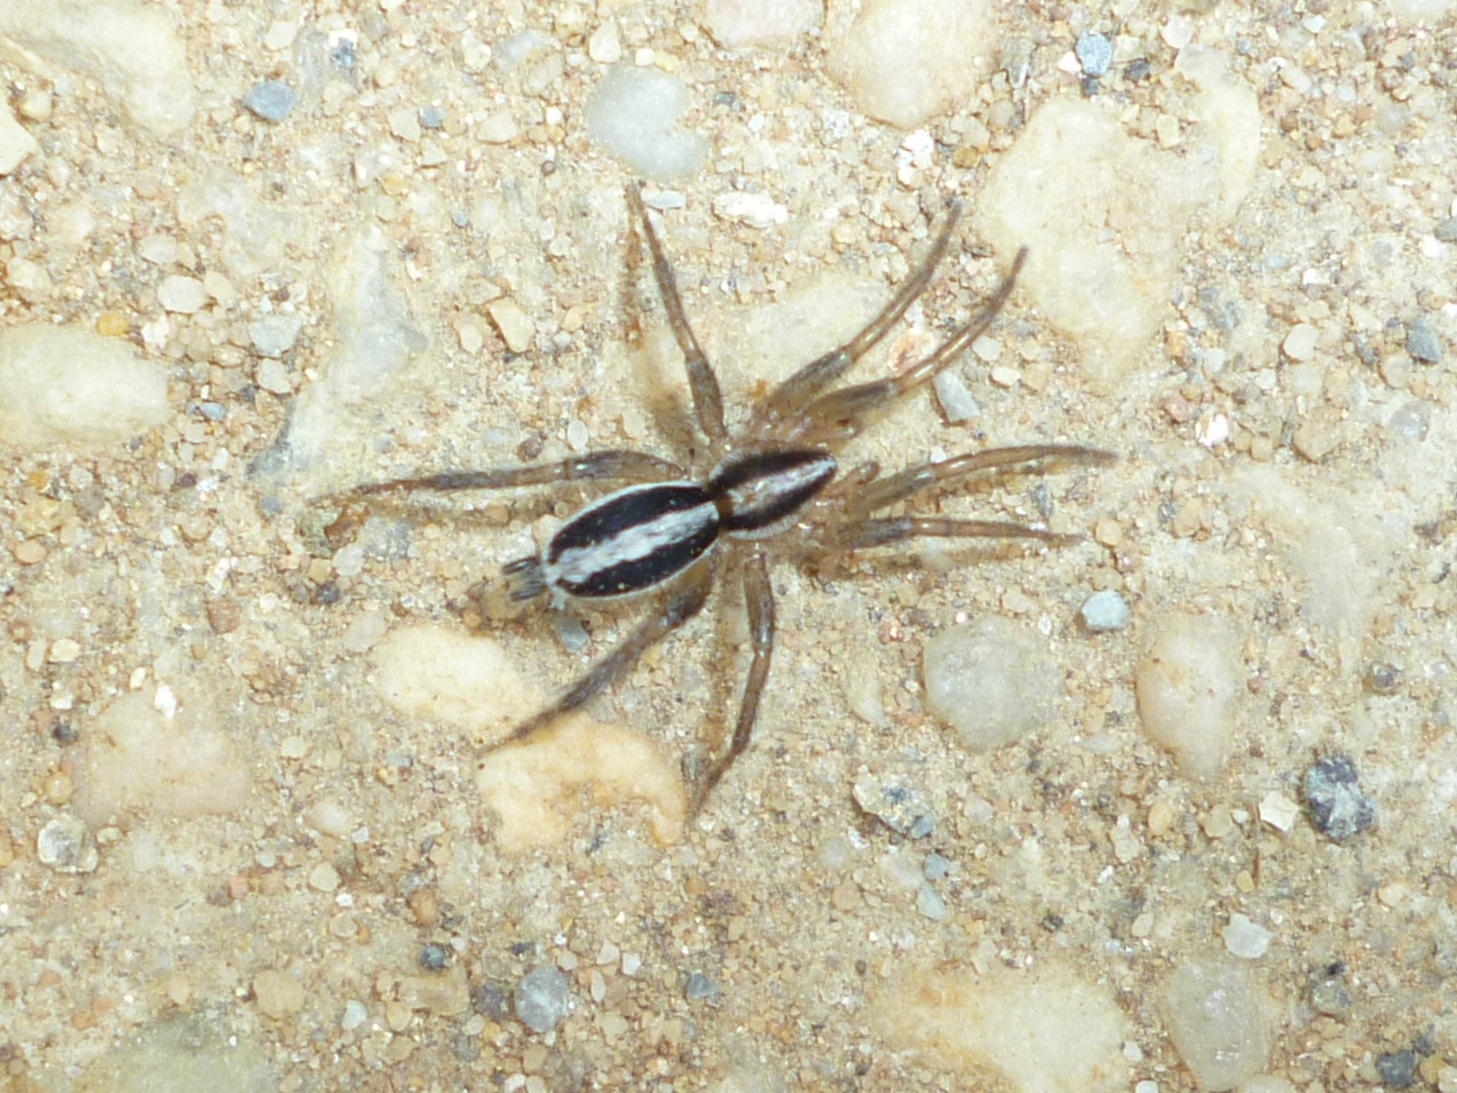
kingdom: Animalia
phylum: Arthropoda
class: Arachnida
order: Araneae
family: Gnaphosidae
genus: Cesonia
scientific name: Cesonia bilineata
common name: Two-lined stealthy ground spider
